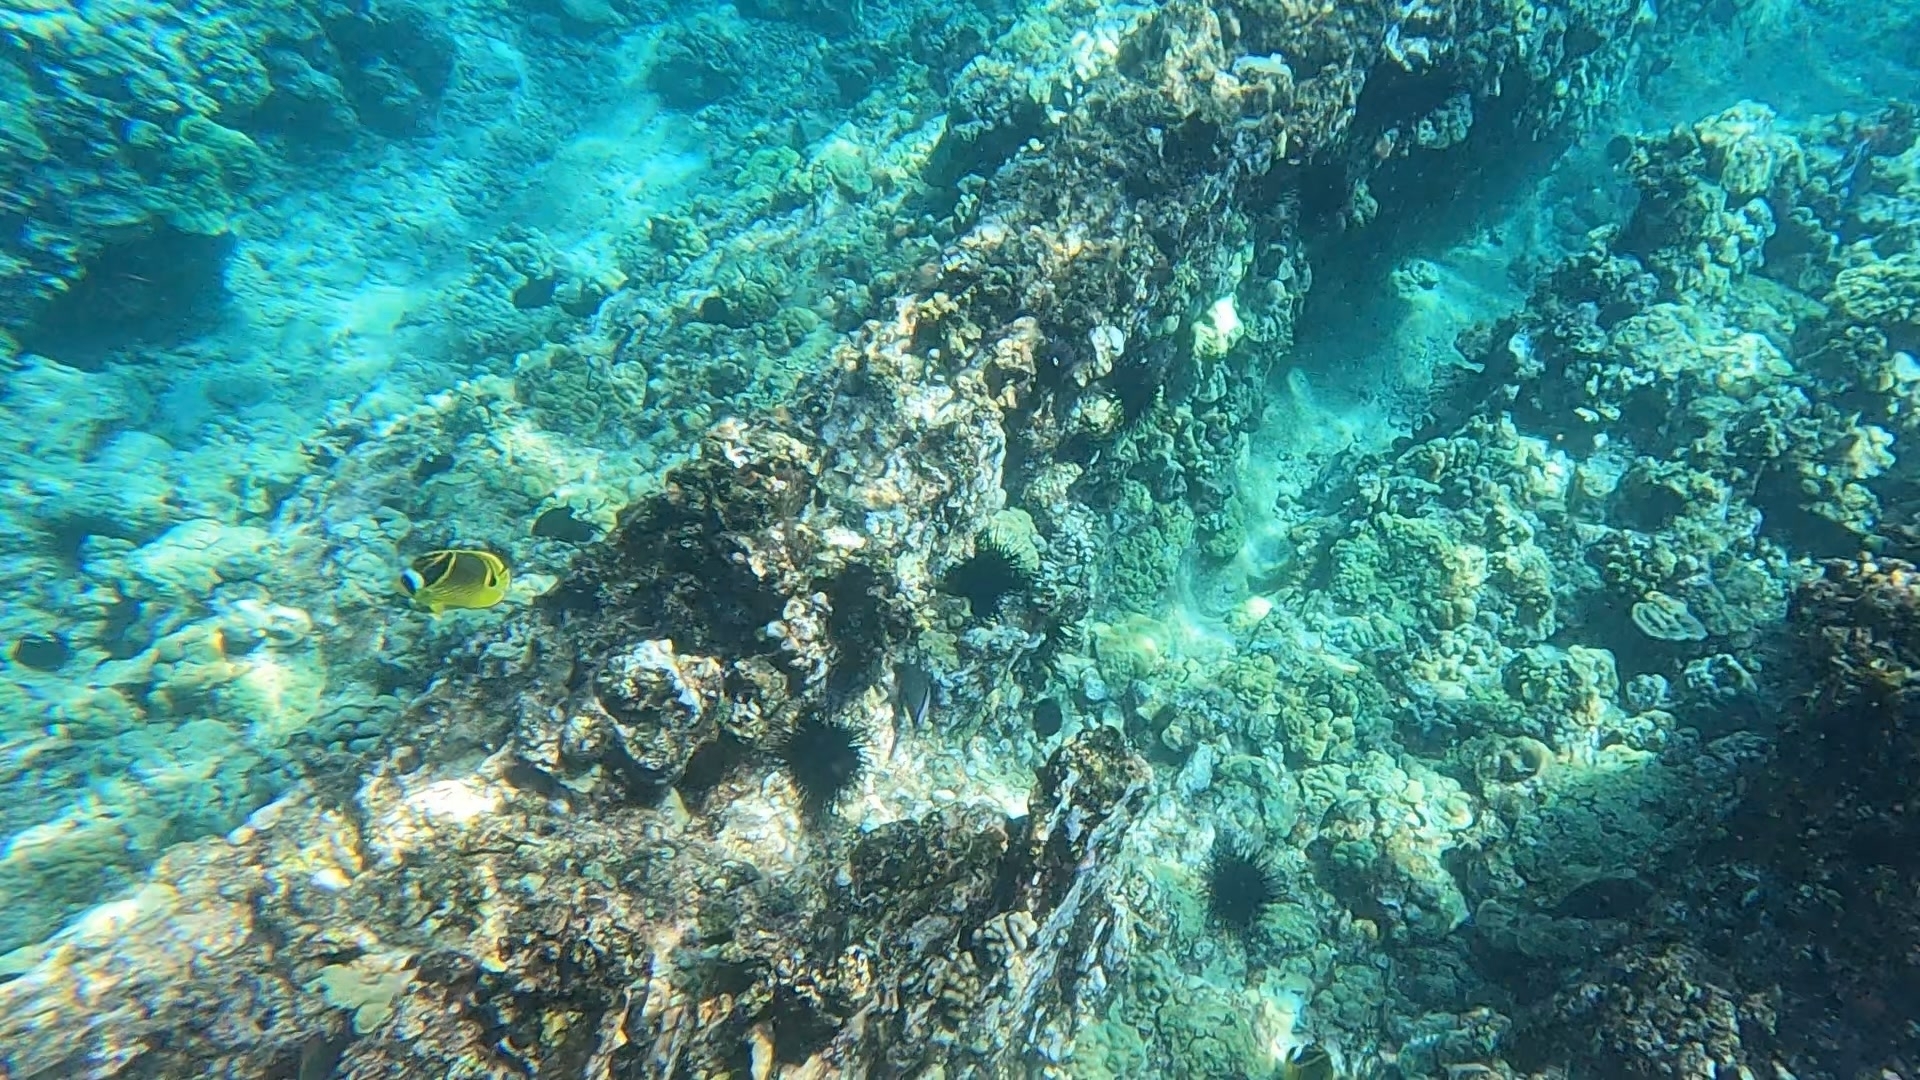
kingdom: Animalia
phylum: Chordata
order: Perciformes
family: Chaetodontidae
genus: Chaetodon
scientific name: Chaetodon lunula
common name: Raccoon butterflyfish
